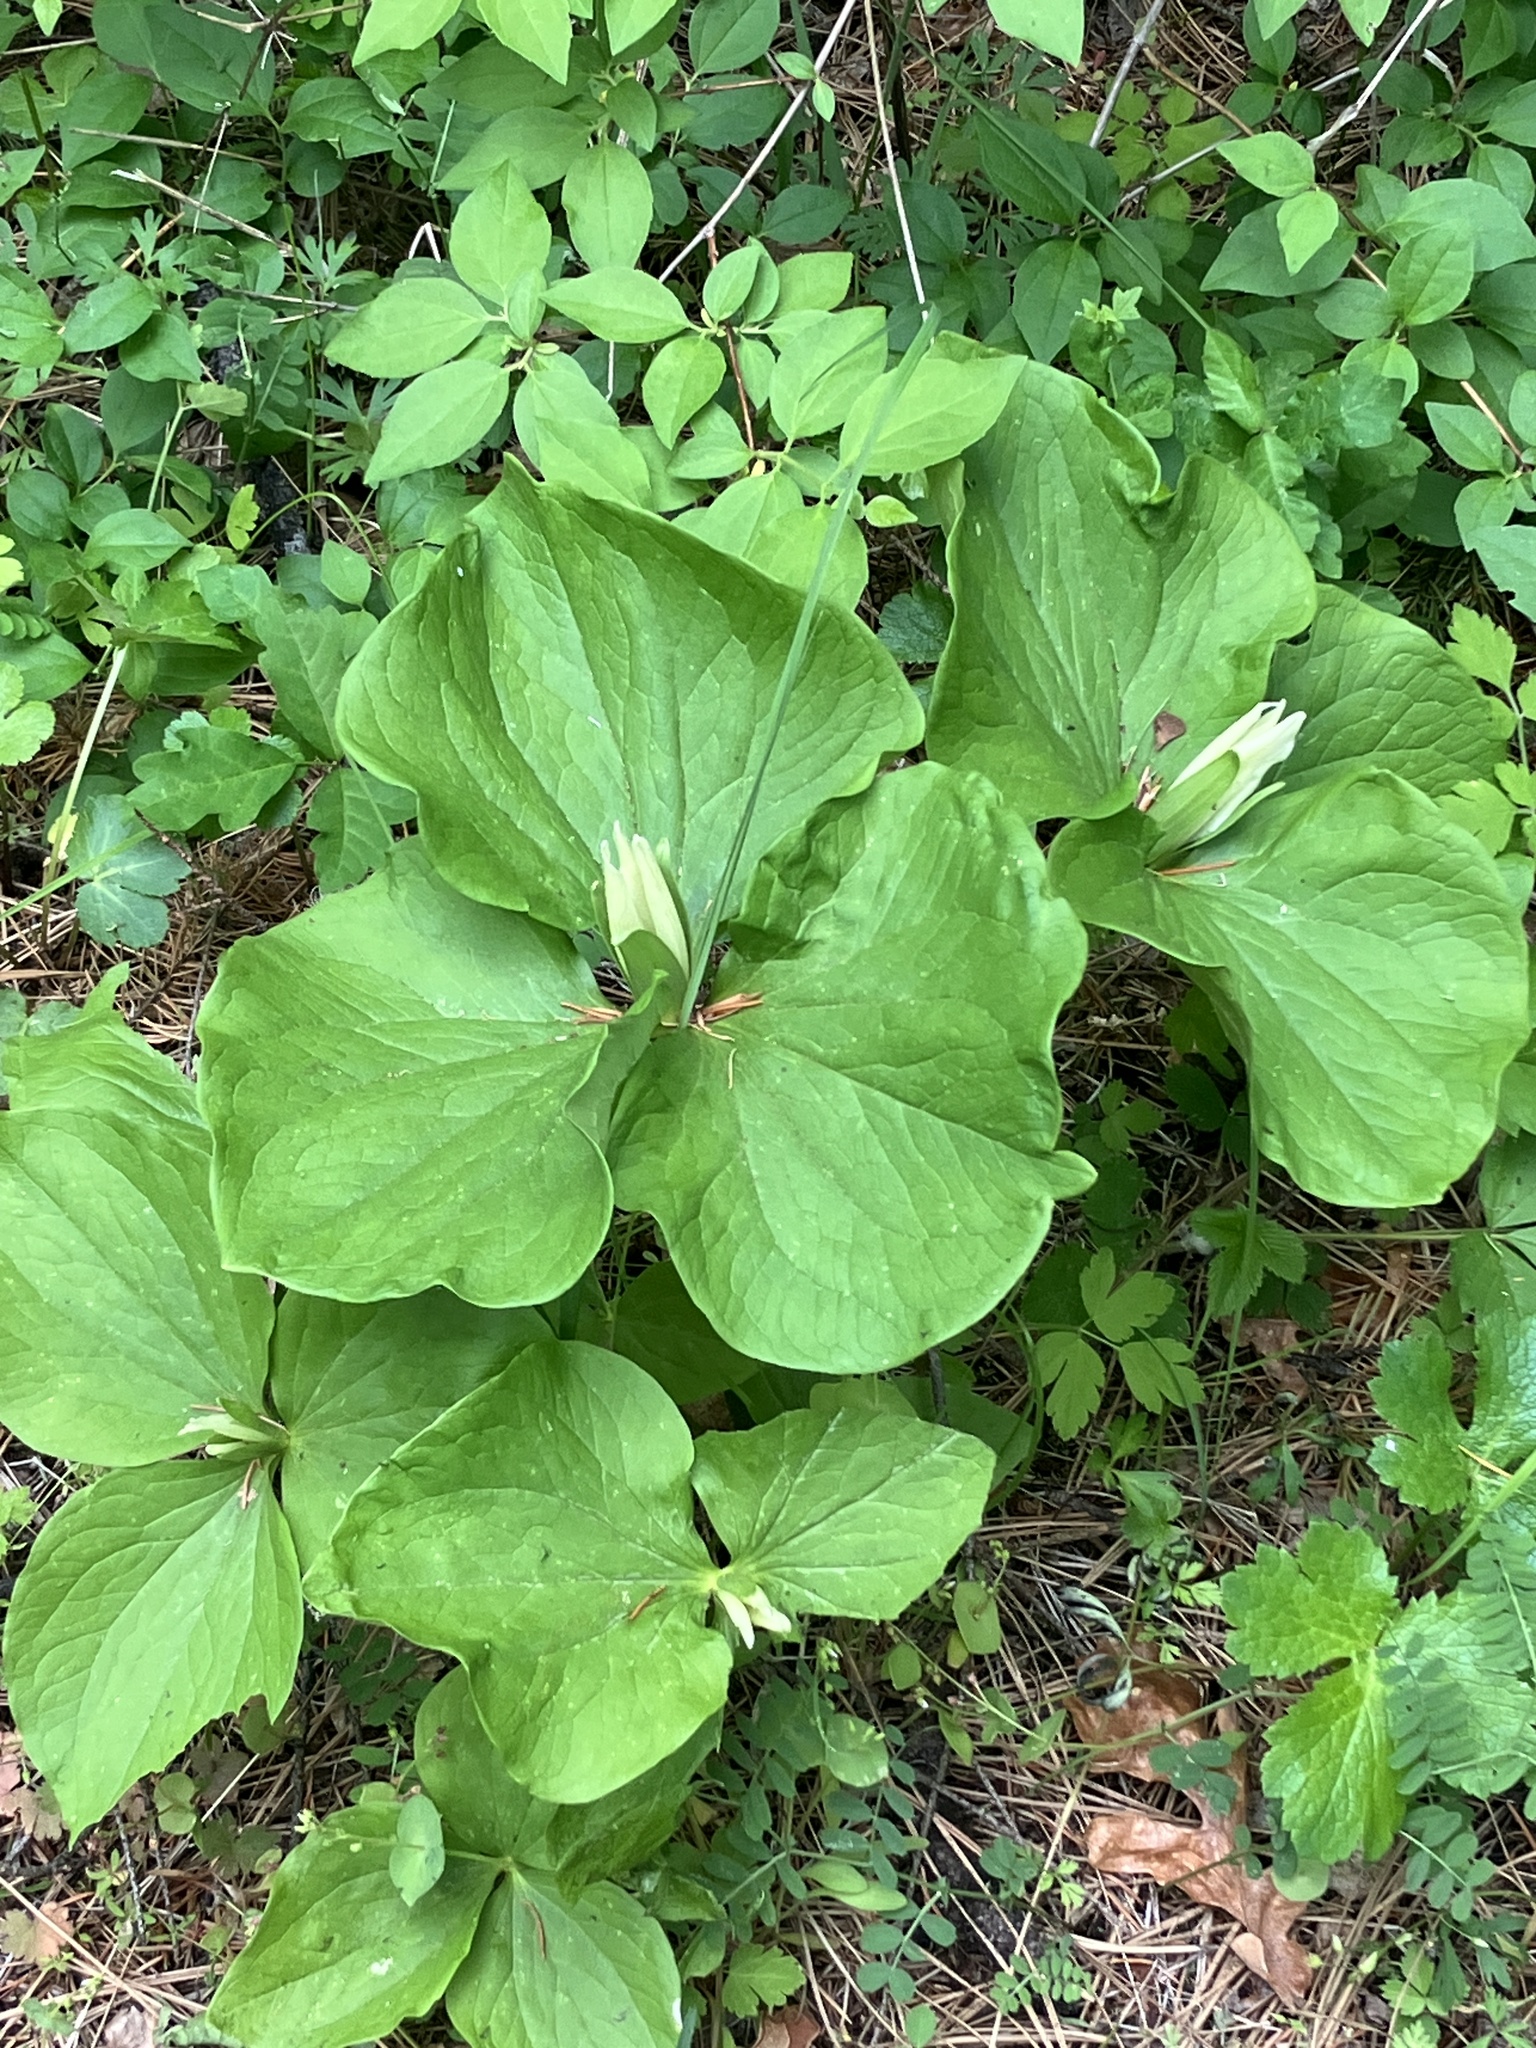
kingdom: Plantae
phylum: Tracheophyta
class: Liliopsida
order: Liliales
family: Melanthiaceae
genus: Trillium
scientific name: Trillium albidum
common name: Freeman's trillium
